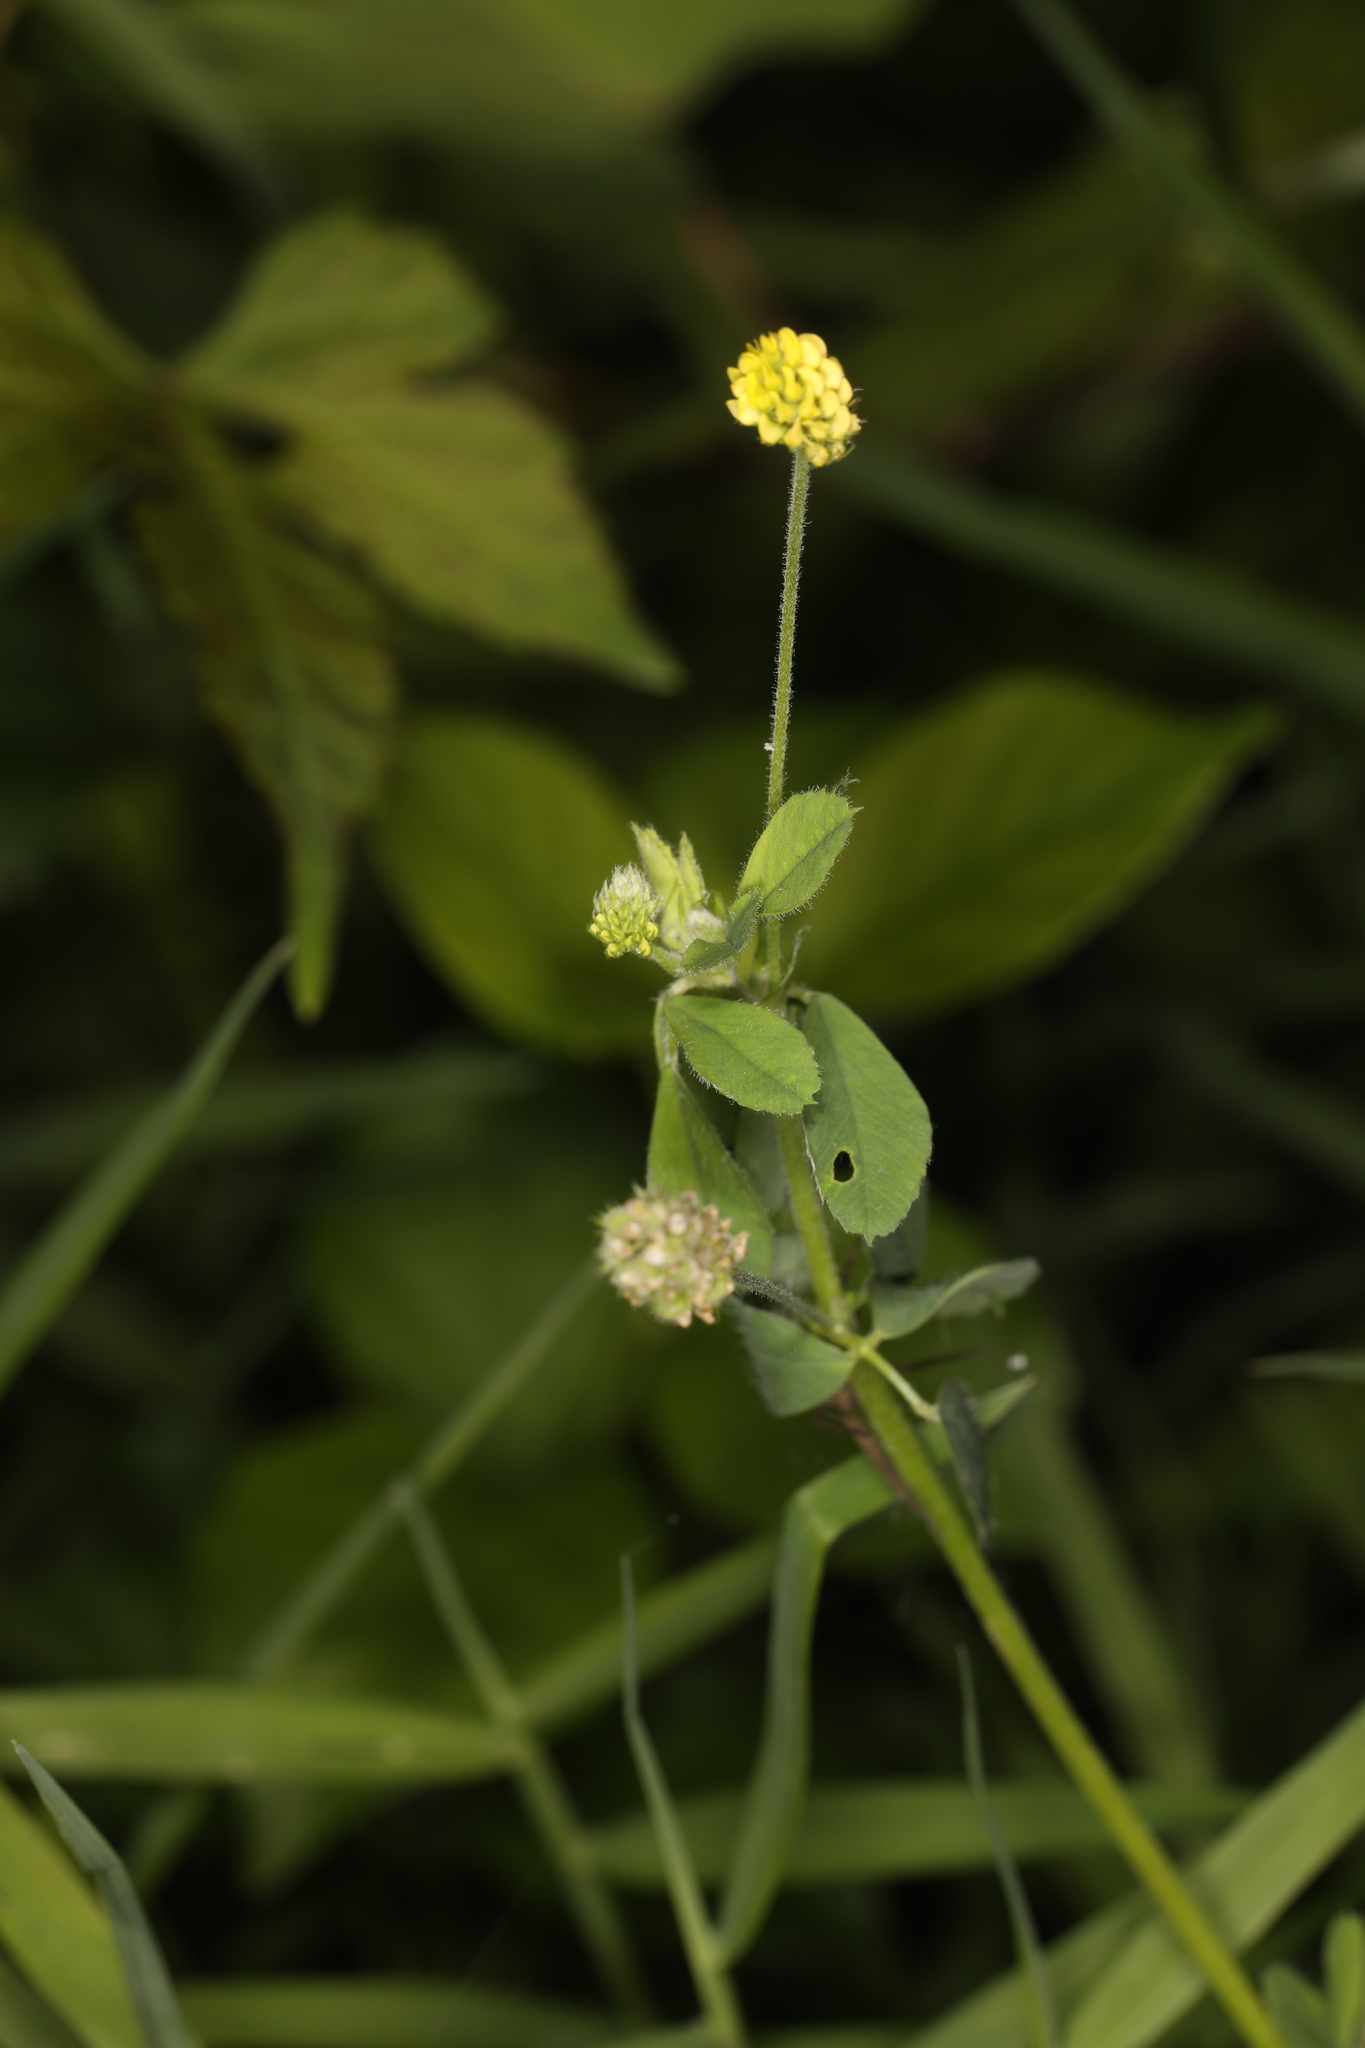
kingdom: Plantae
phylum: Tracheophyta
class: Magnoliopsida
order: Fabales
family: Fabaceae
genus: Medicago
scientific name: Medicago lupulina
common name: Black medick
